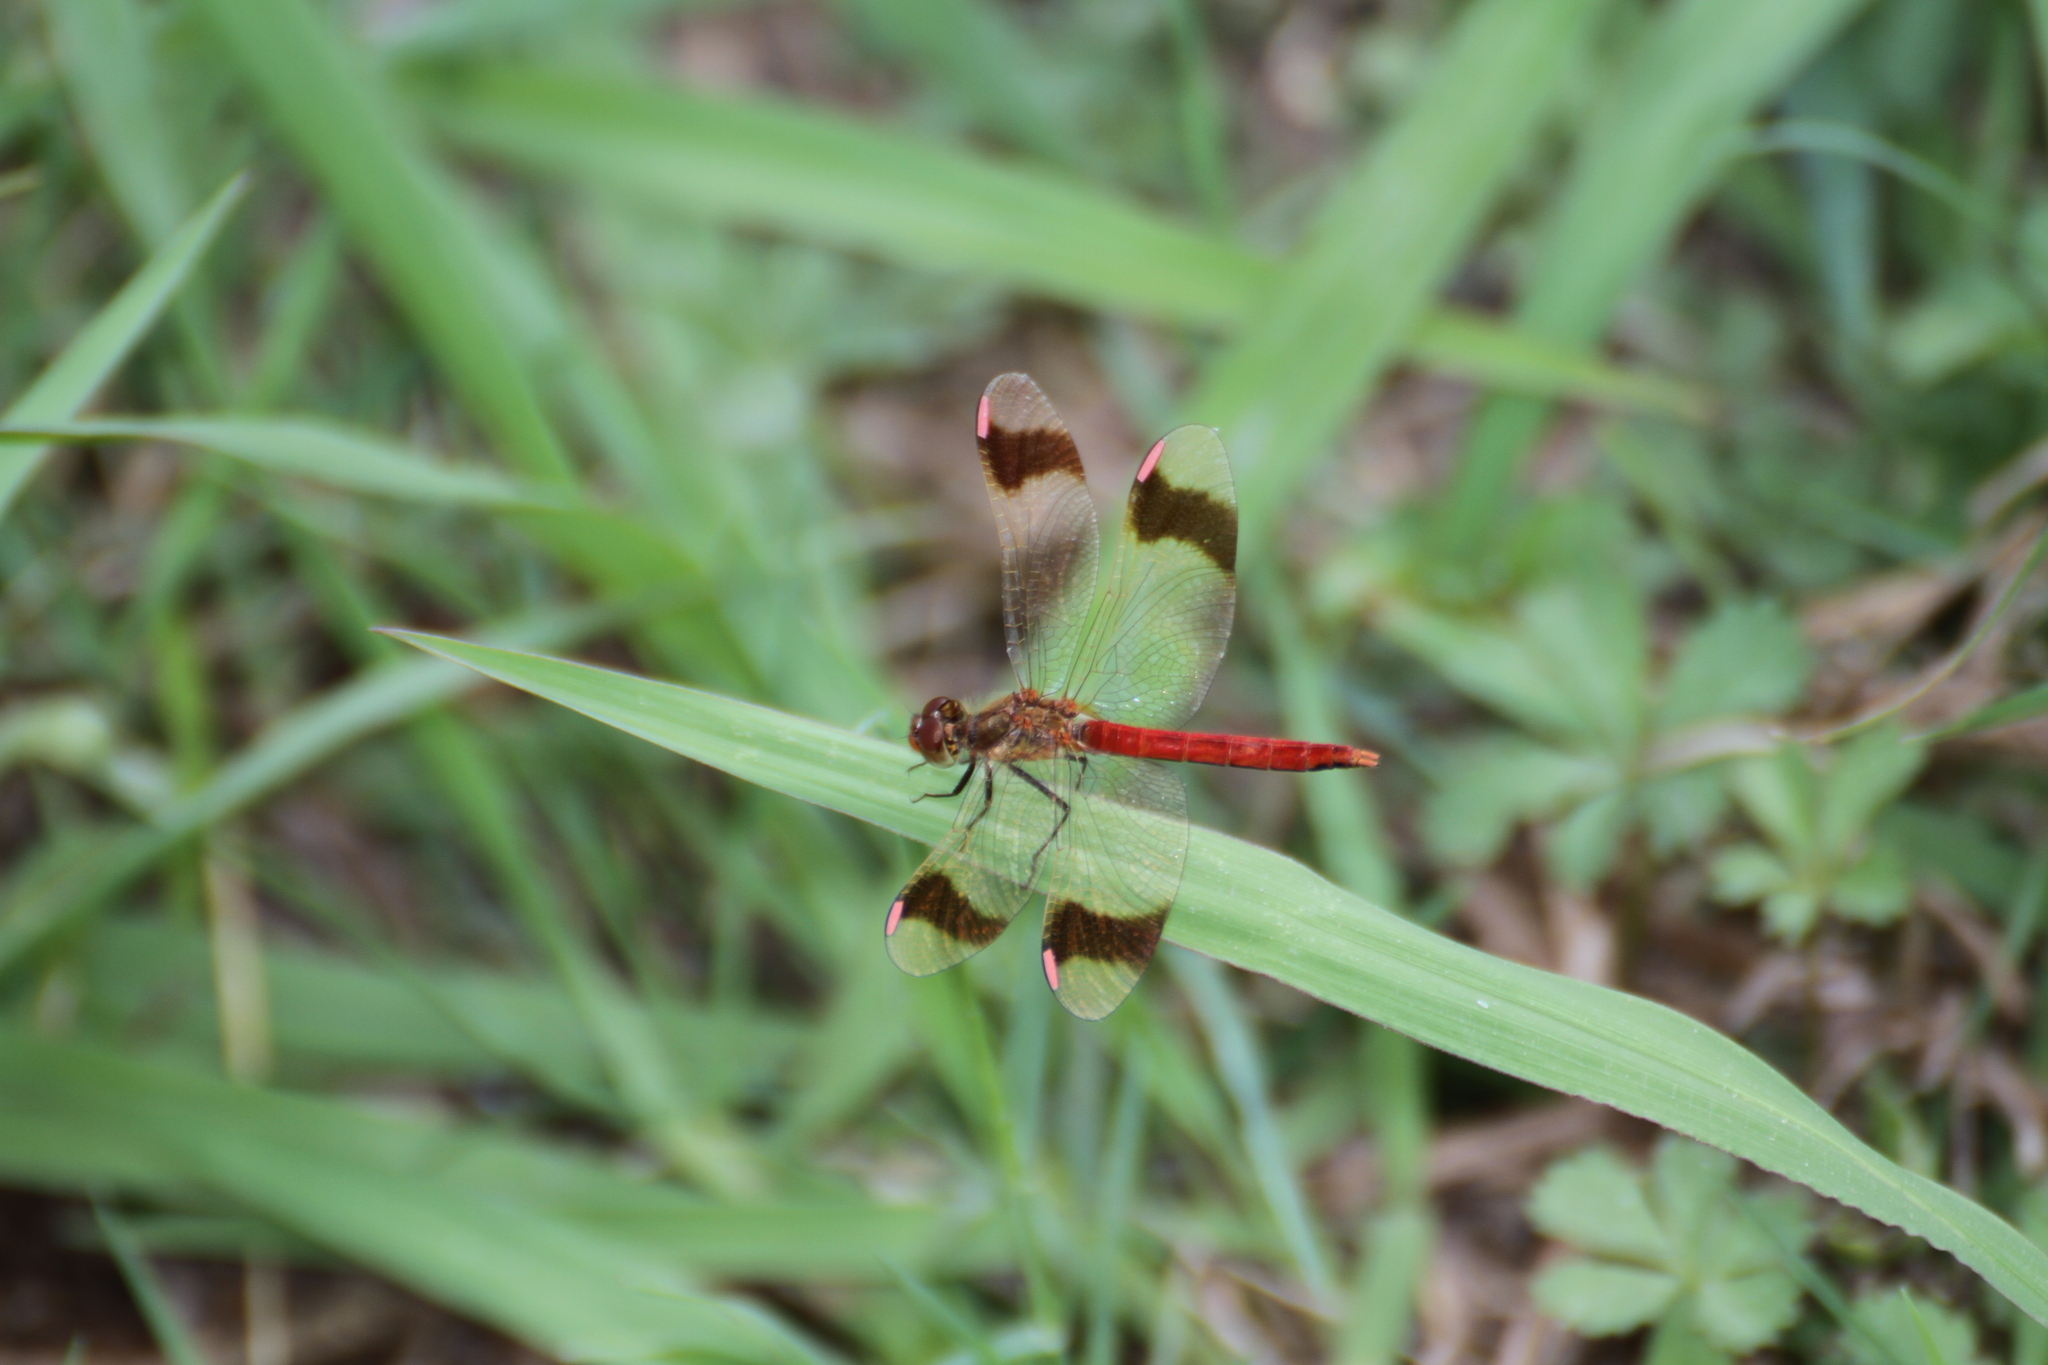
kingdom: Animalia
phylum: Arthropoda
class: Insecta
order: Odonata
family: Libellulidae
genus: Sympetrum
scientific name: Sympetrum pedemontanum
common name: Banded darter
